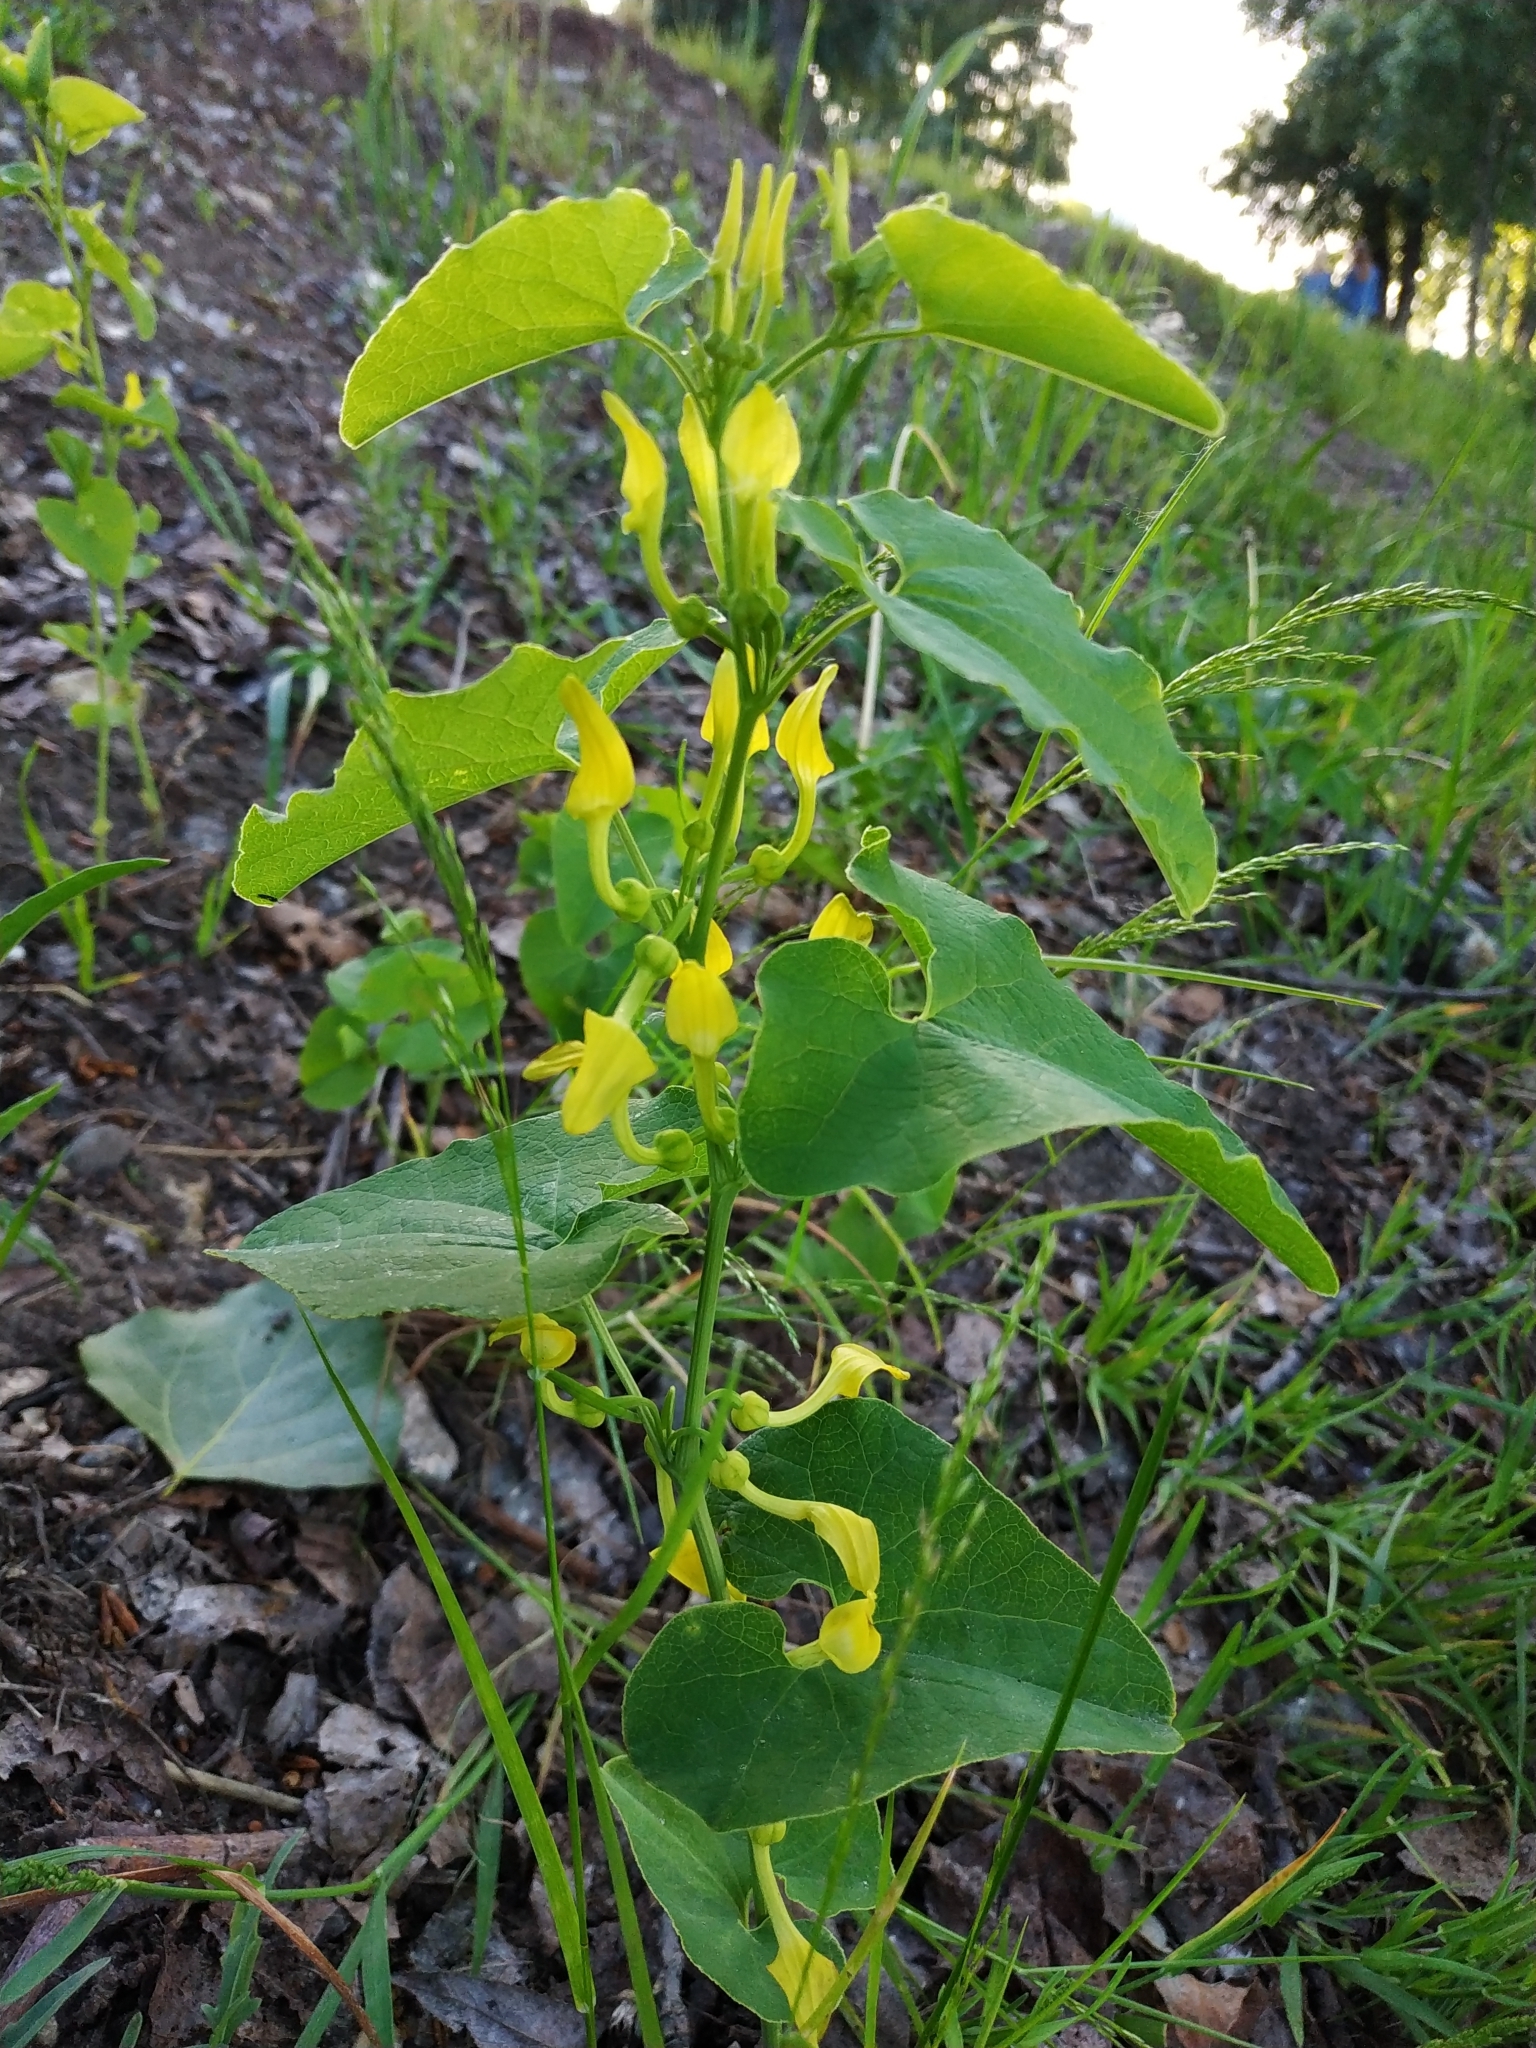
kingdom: Plantae
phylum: Tracheophyta
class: Magnoliopsida
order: Piperales
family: Aristolochiaceae
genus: Aristolochia
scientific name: Aristolochia clematitis
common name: Birthwort
